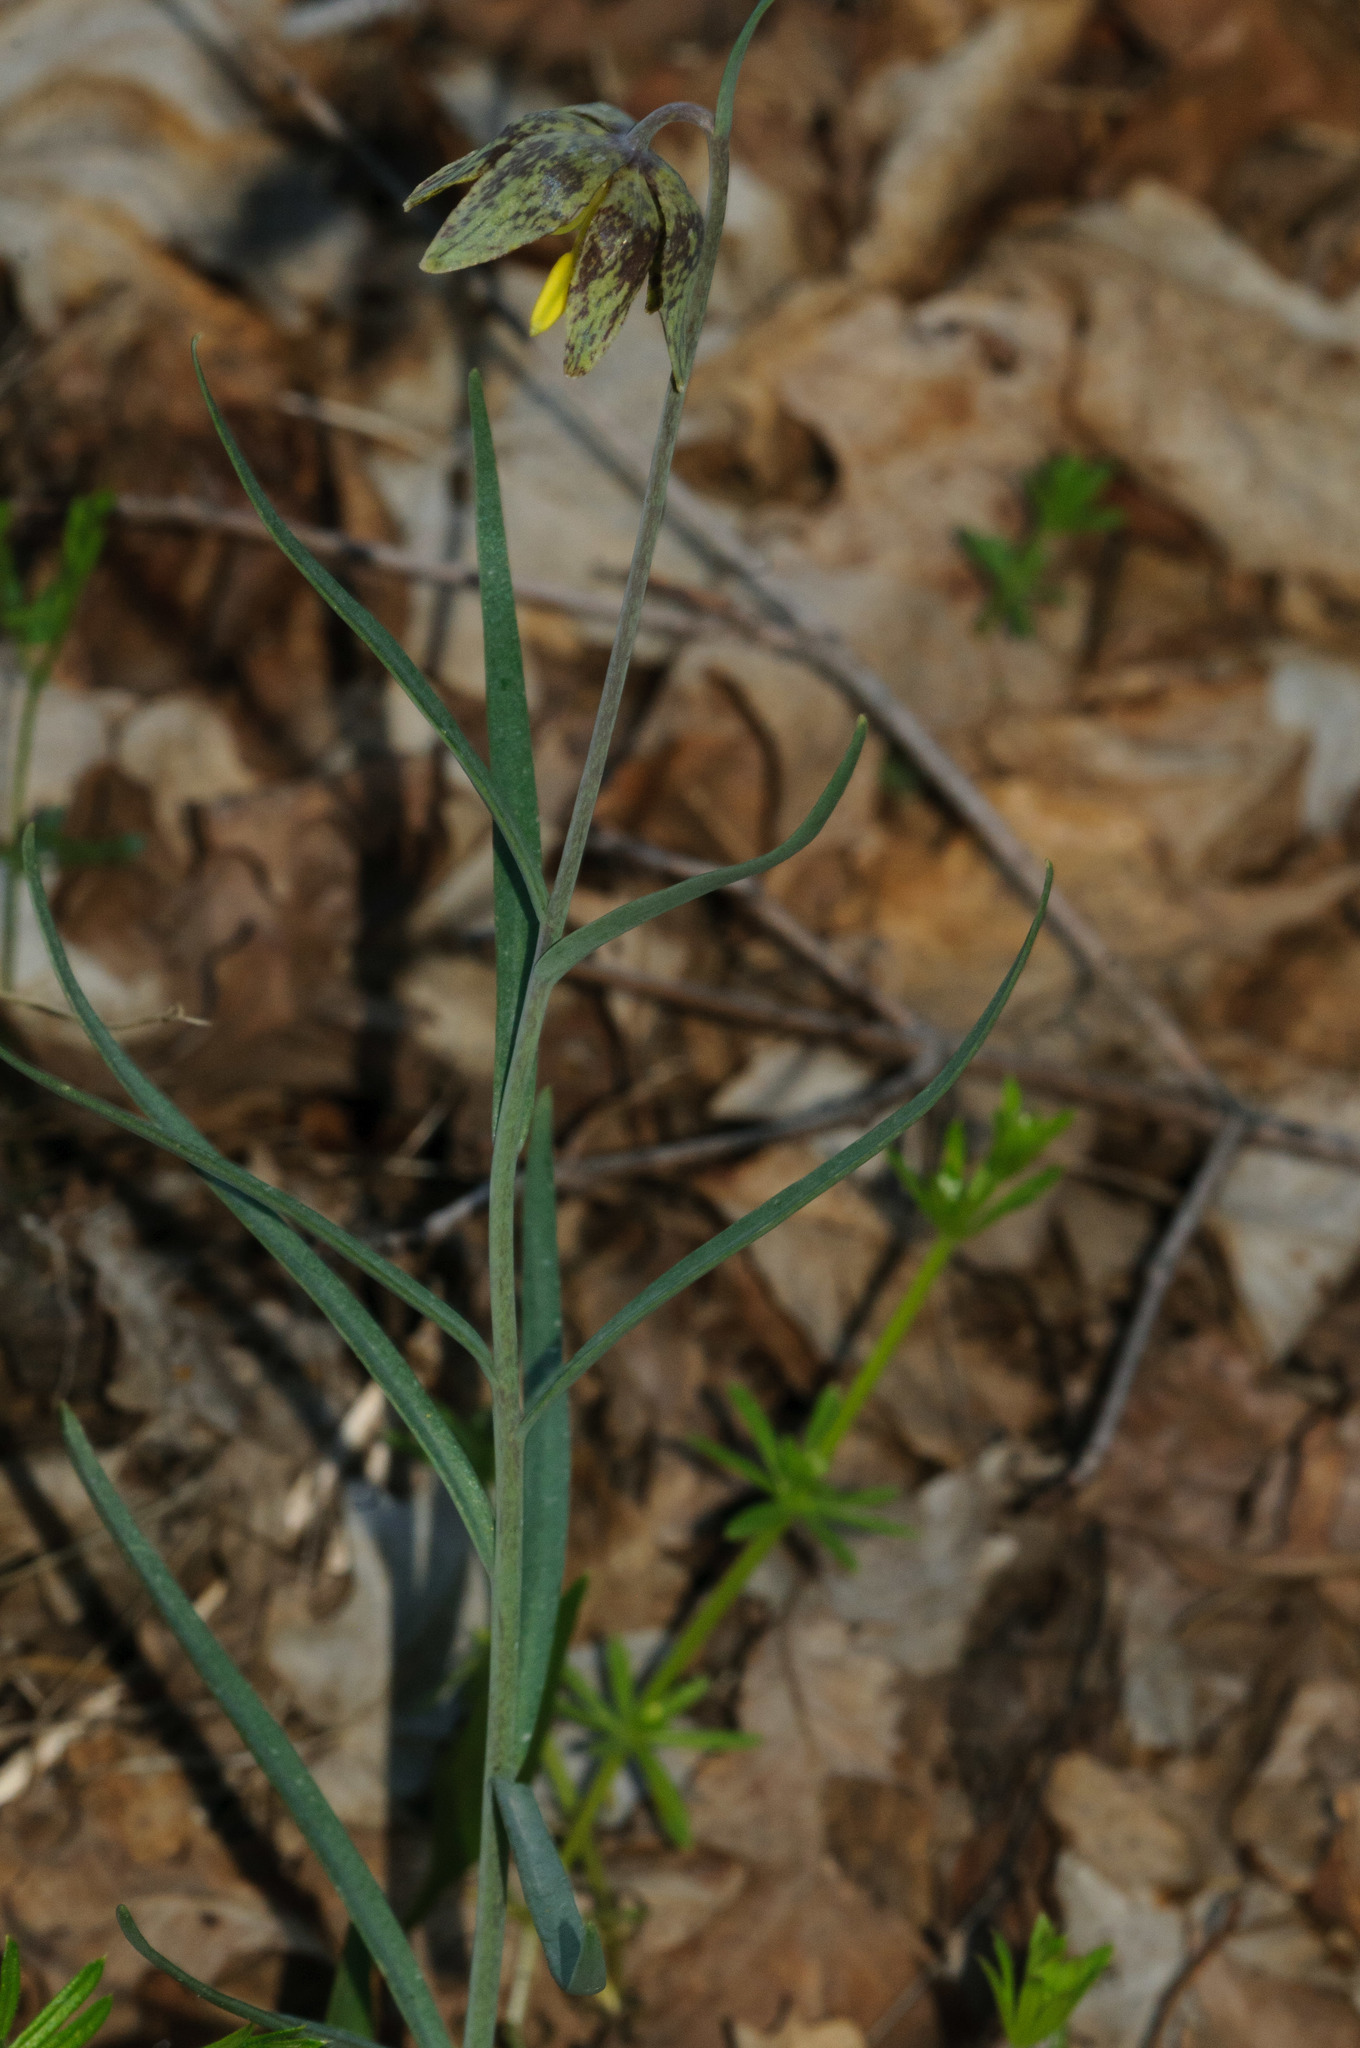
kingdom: Plantae
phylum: Tracheophyta
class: Liliopsida
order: Liliales
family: Liliaceae
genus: Fritillaria
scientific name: Fritillaria atropurpurea
